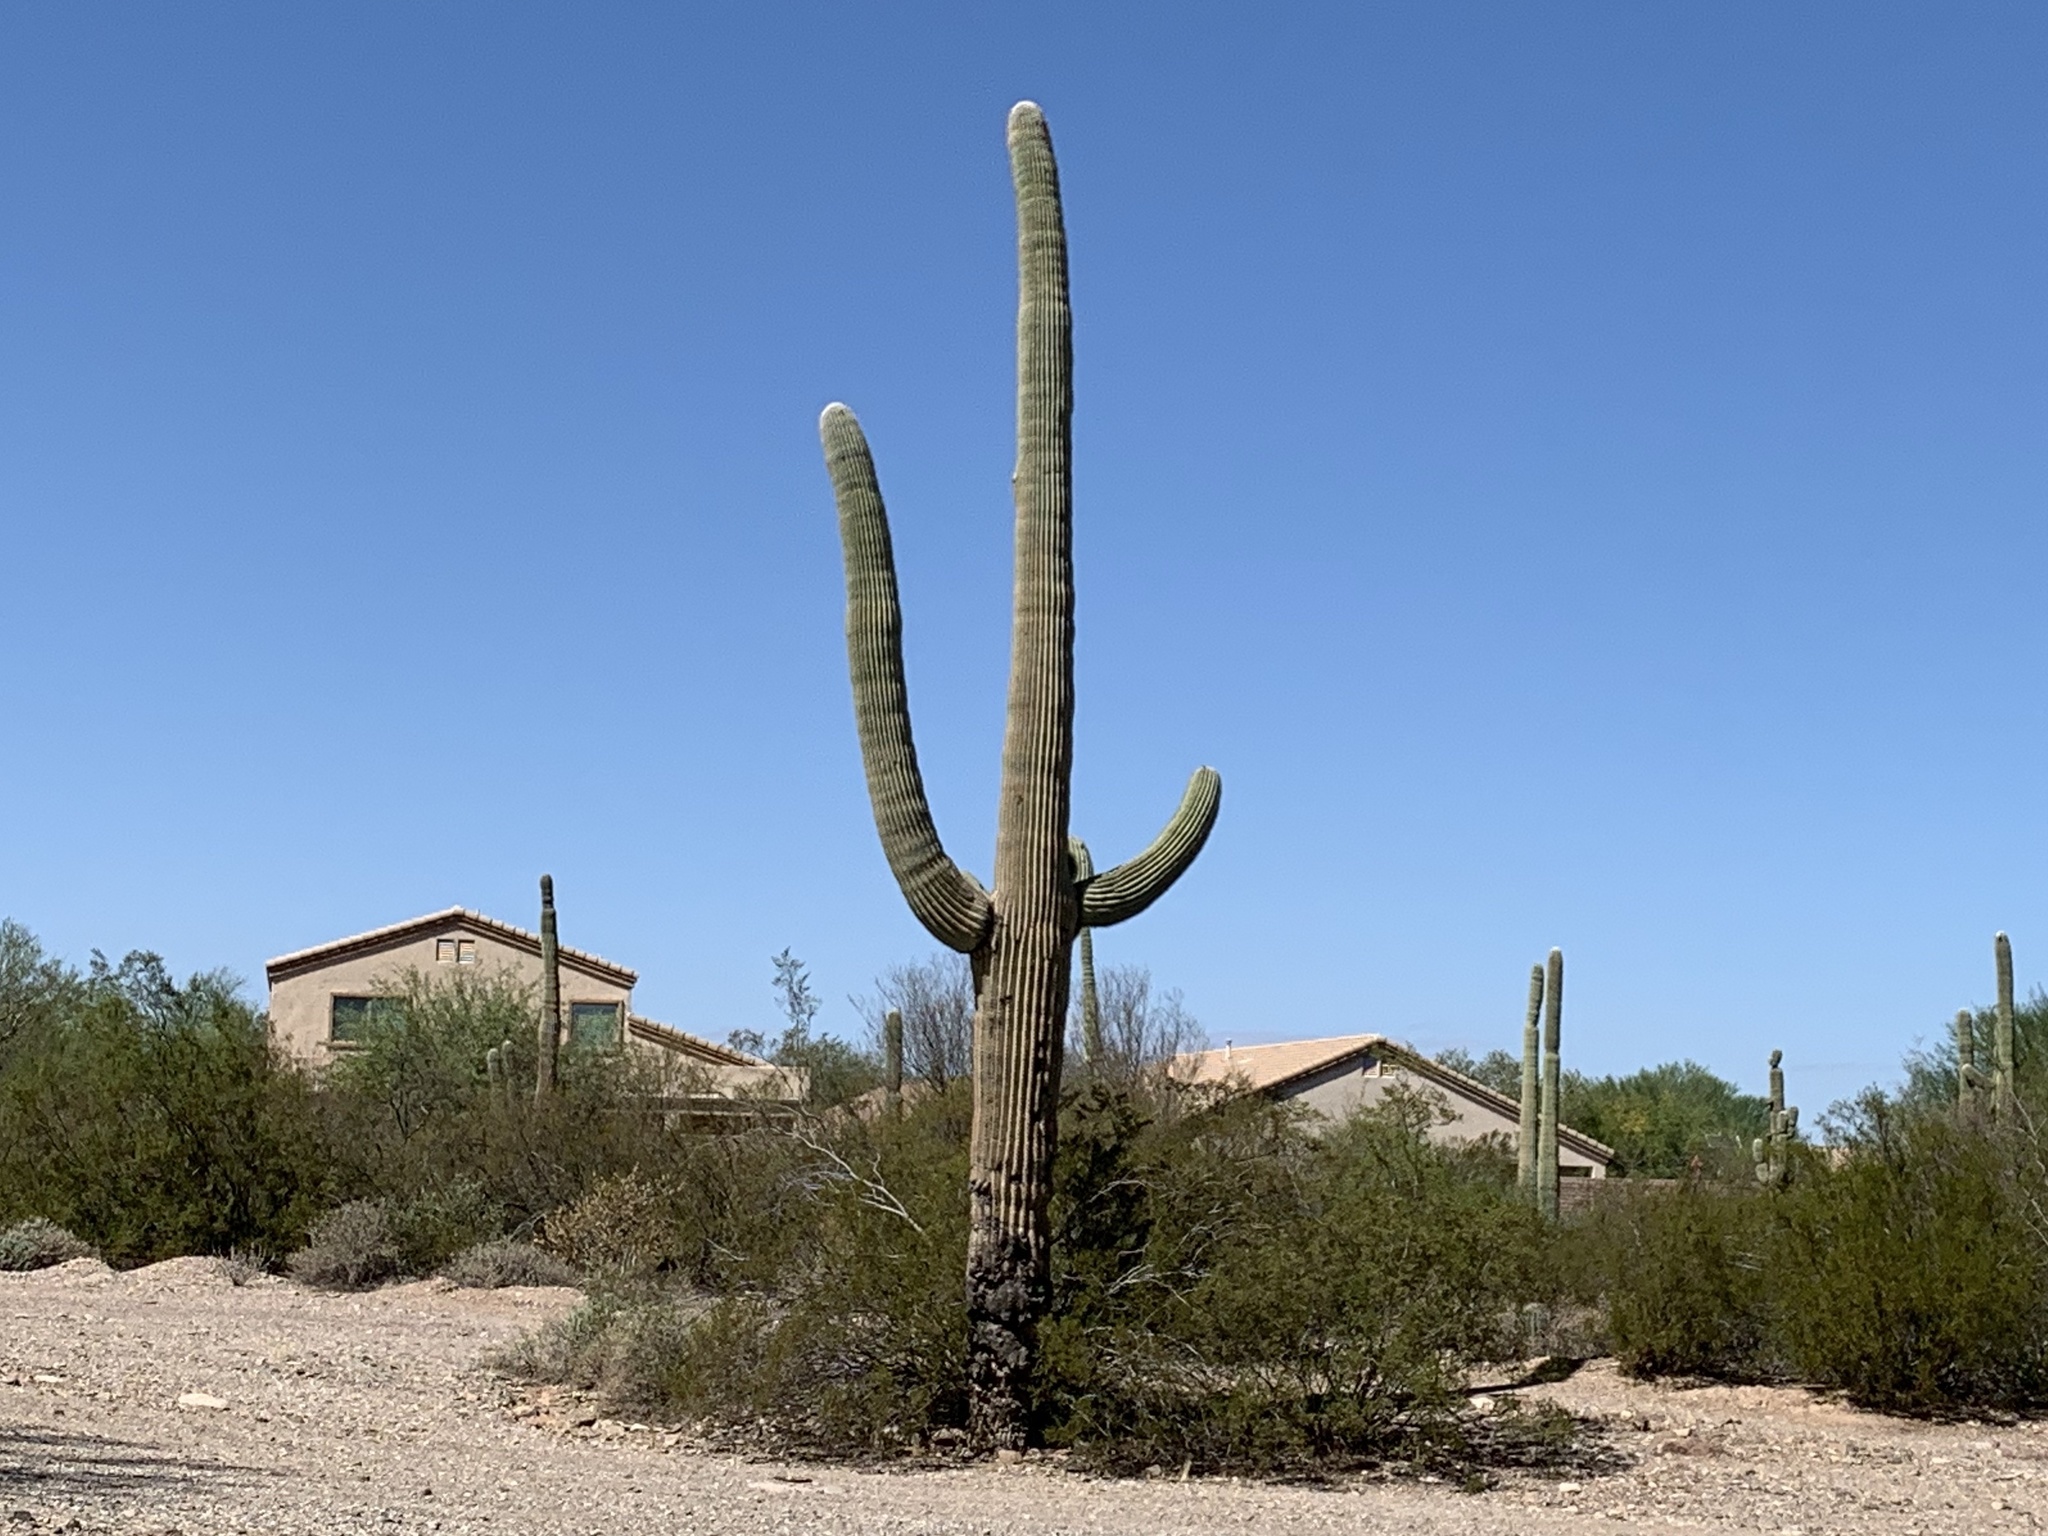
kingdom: Plantae
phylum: Tracheophyta
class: Magnoliopsida
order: Caryophyllales
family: Cactaceae
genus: Carnegiea
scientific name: Carnegiea gigantea
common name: Saguaro
